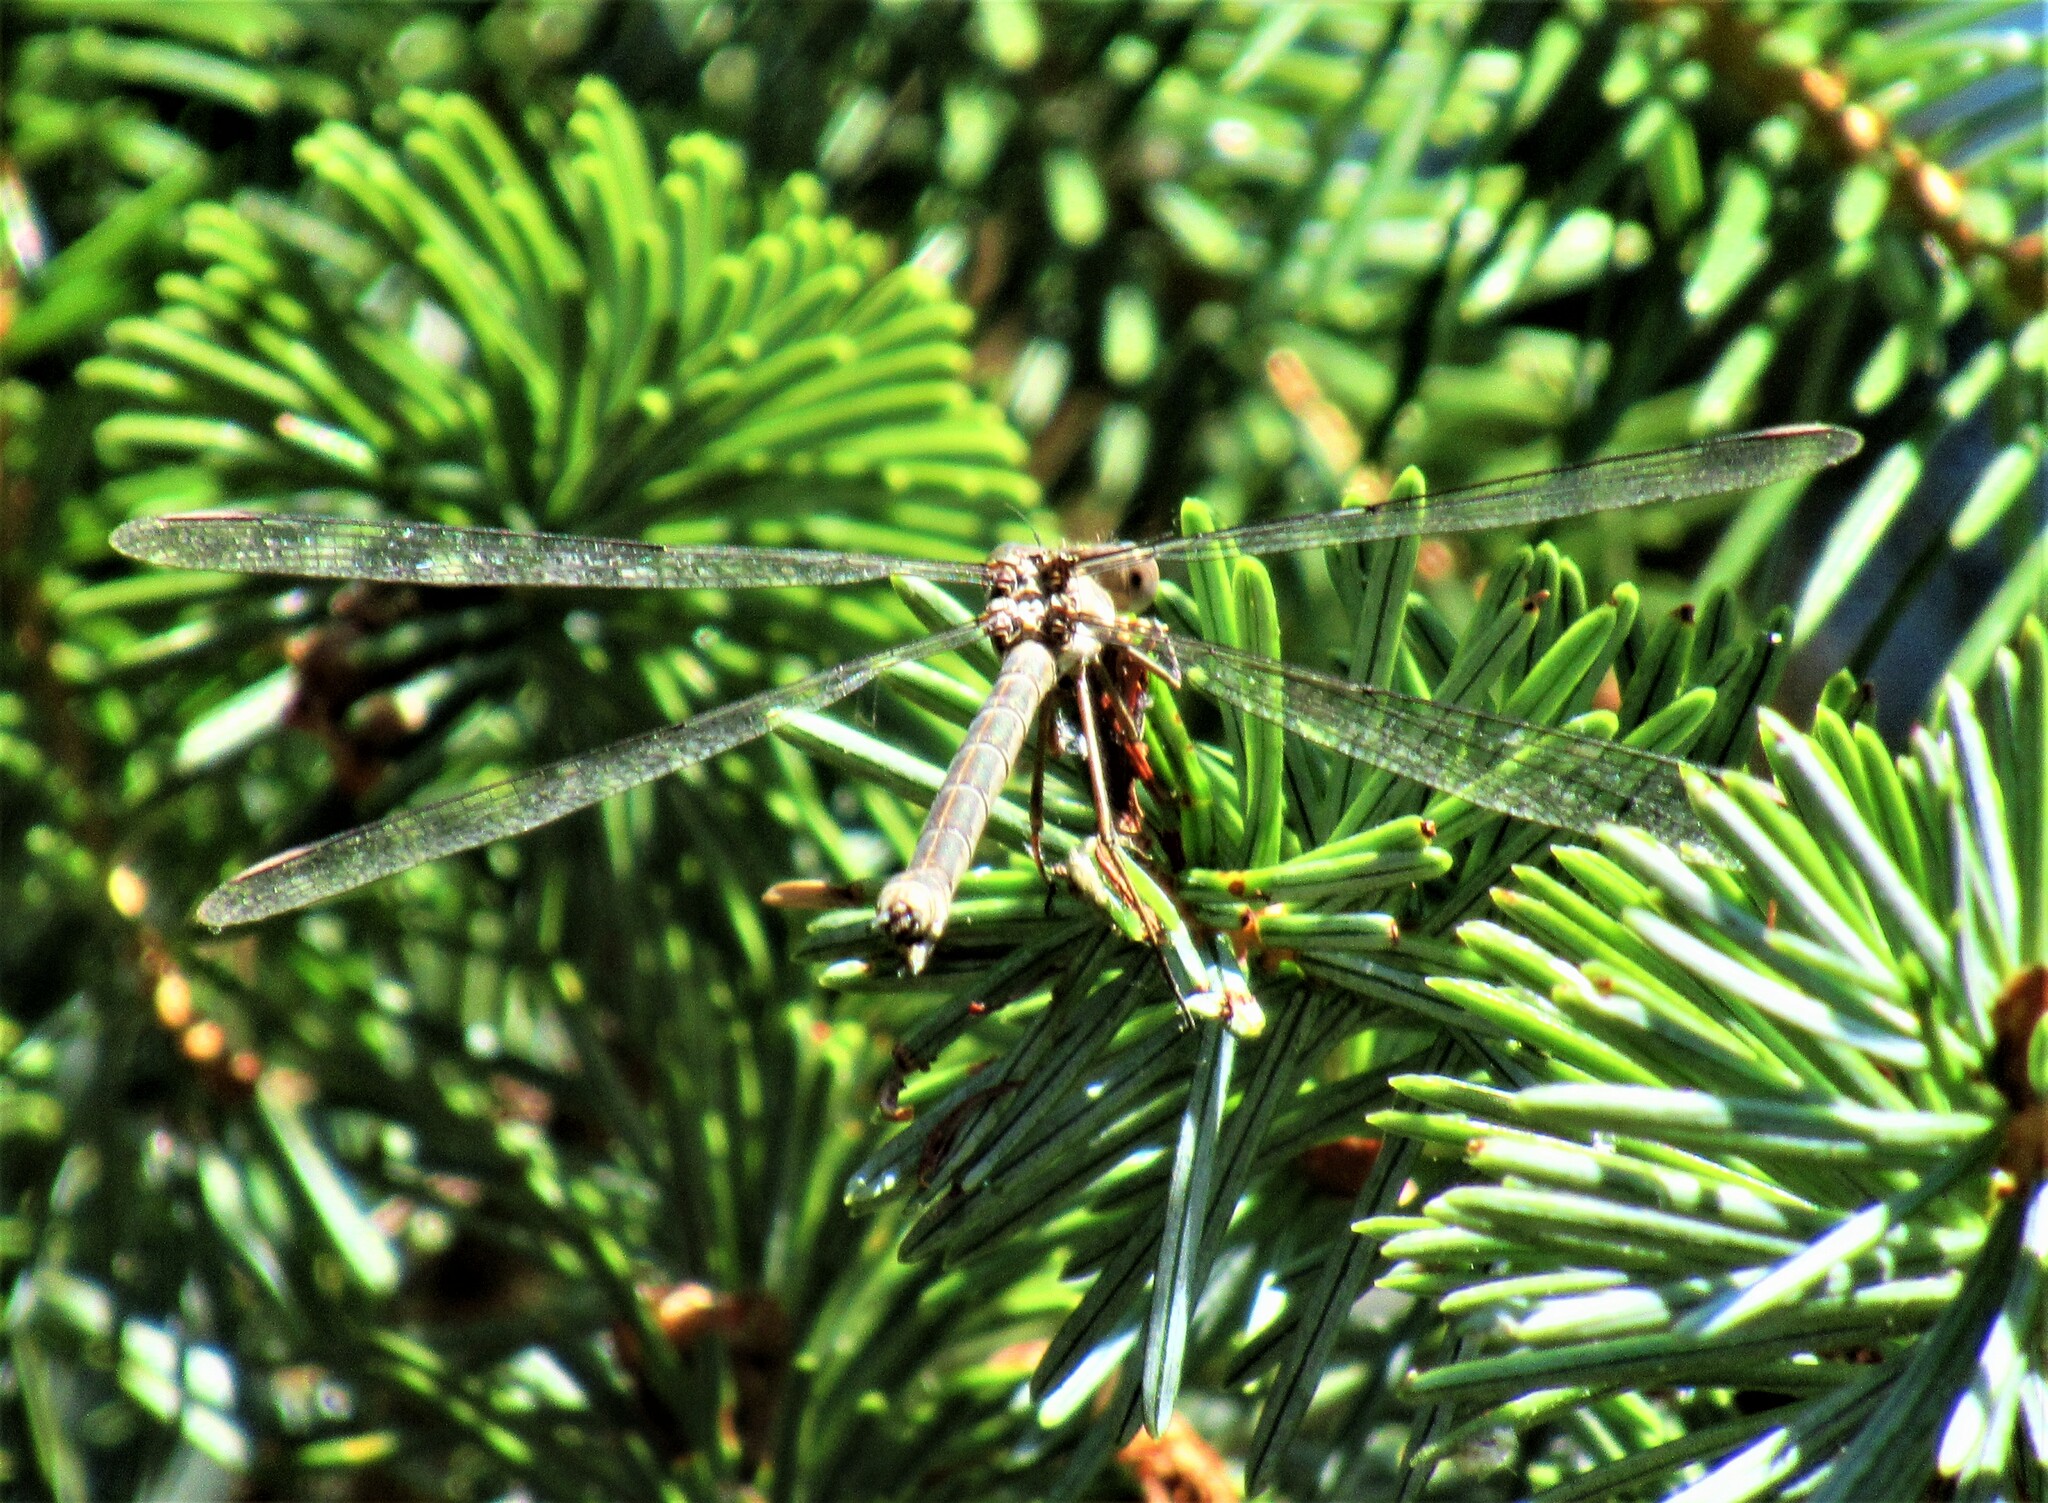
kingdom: Animalia
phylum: Arthropoda
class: Insecta
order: Odonata
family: Lestidae
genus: Archilestes
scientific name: Archilestes californicus
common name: California spreadwing
